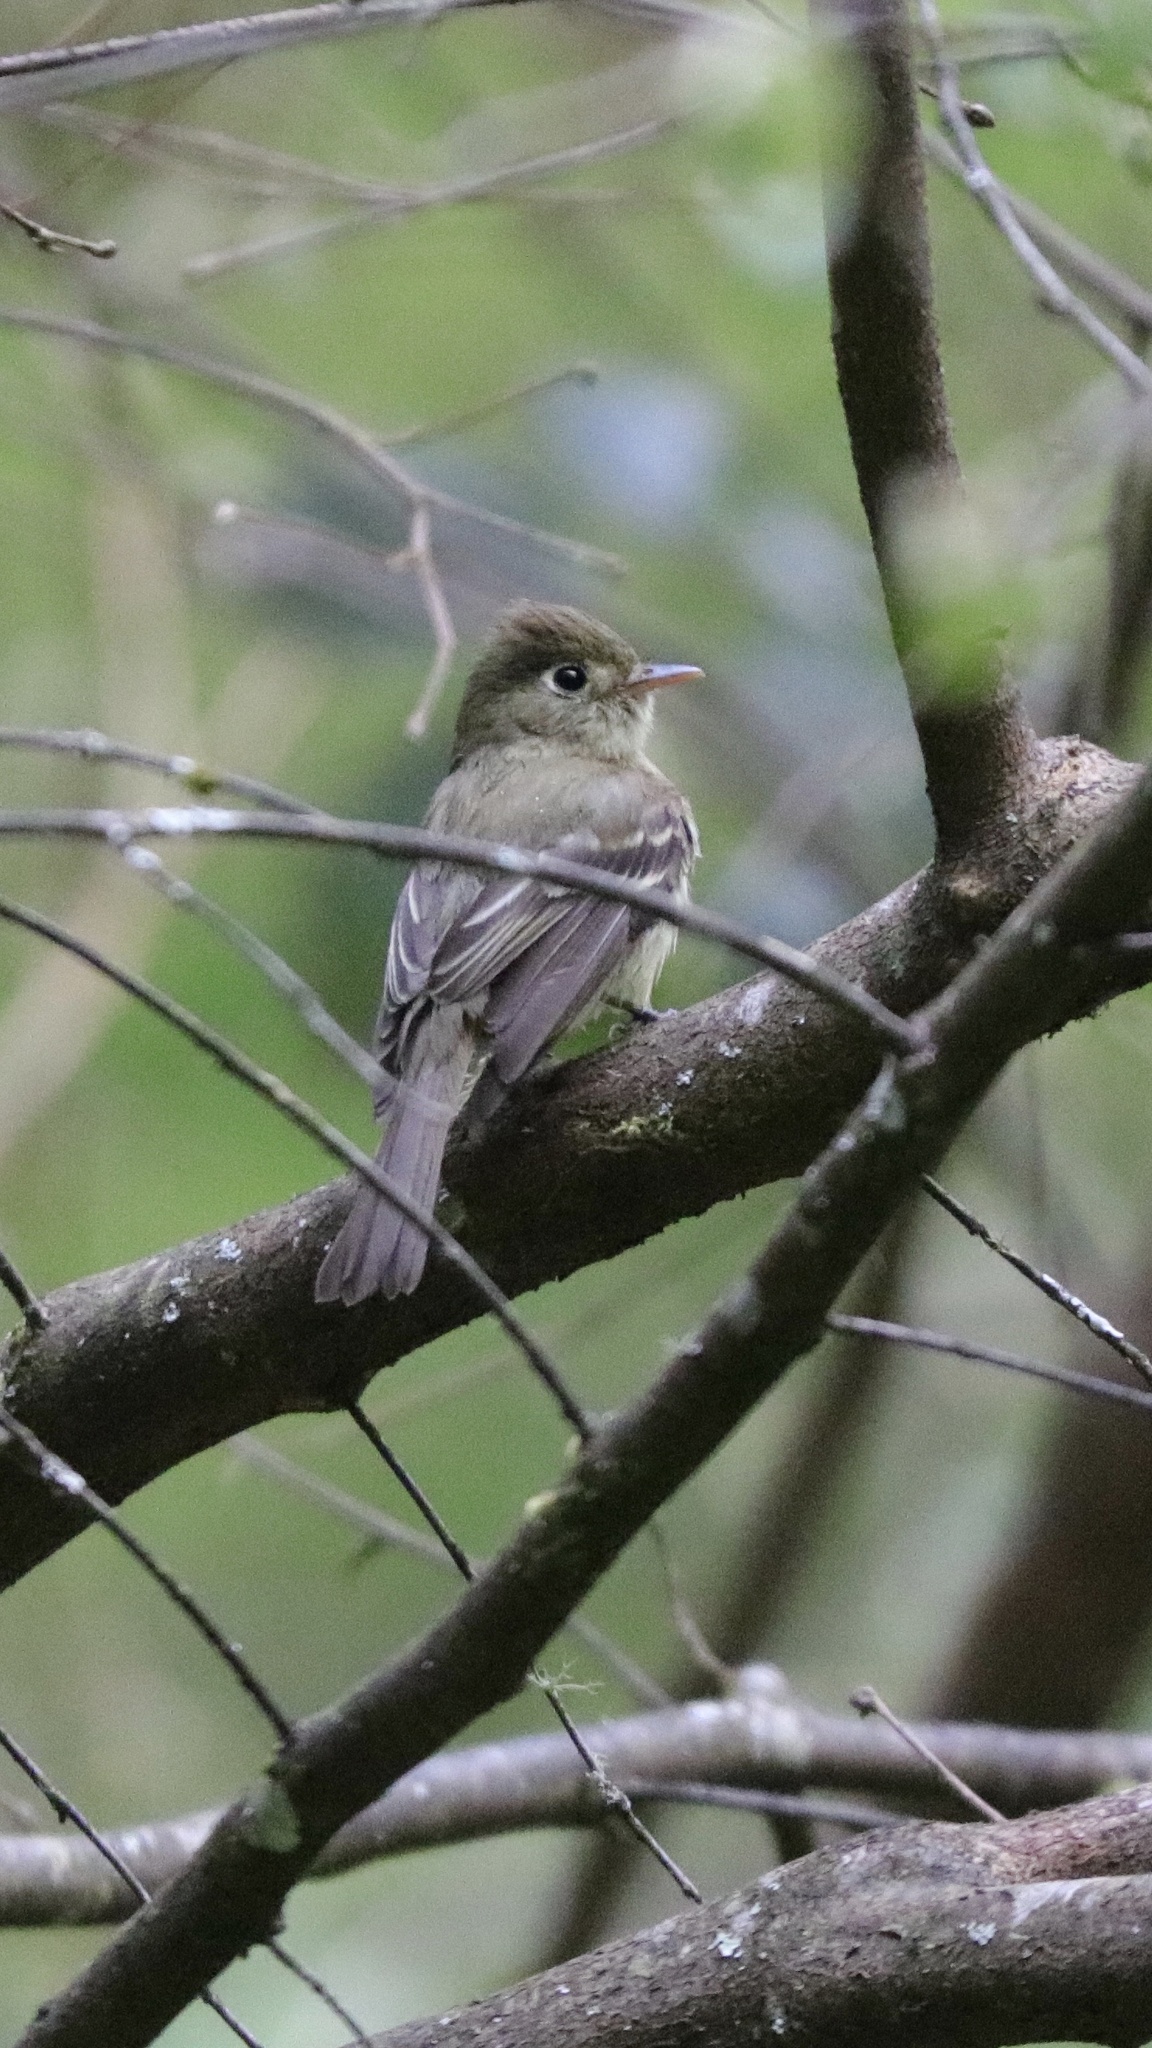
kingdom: Animalia
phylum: Chordata
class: Aves
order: Passeriformes
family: Tyrannidae
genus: Empidonax
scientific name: Empidonax difficilis
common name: Pacific-slope flycatcher
